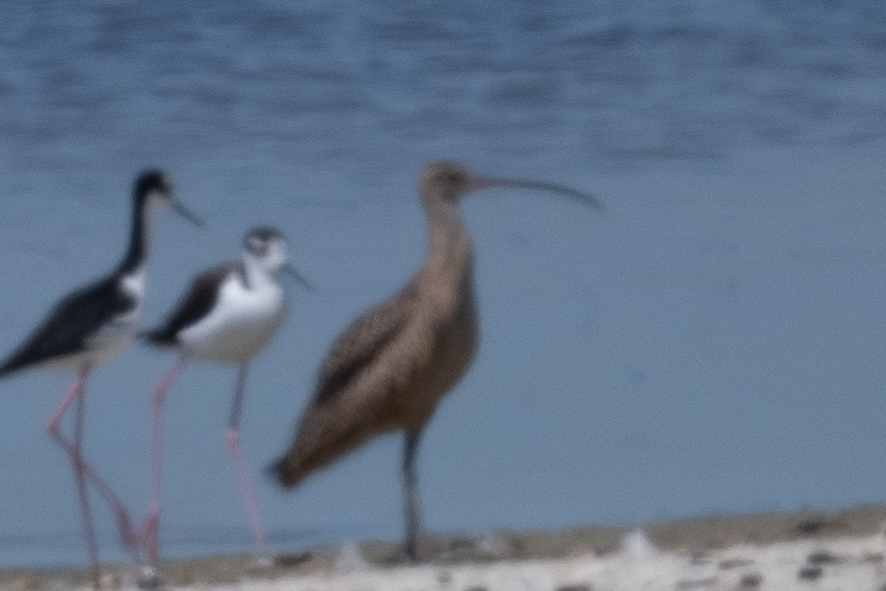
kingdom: Animalia
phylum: Chordata
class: Aves
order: Charadriiformes
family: Scolopacidae
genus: Numenius
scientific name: Numenius americanus
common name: Long-billed curlew
